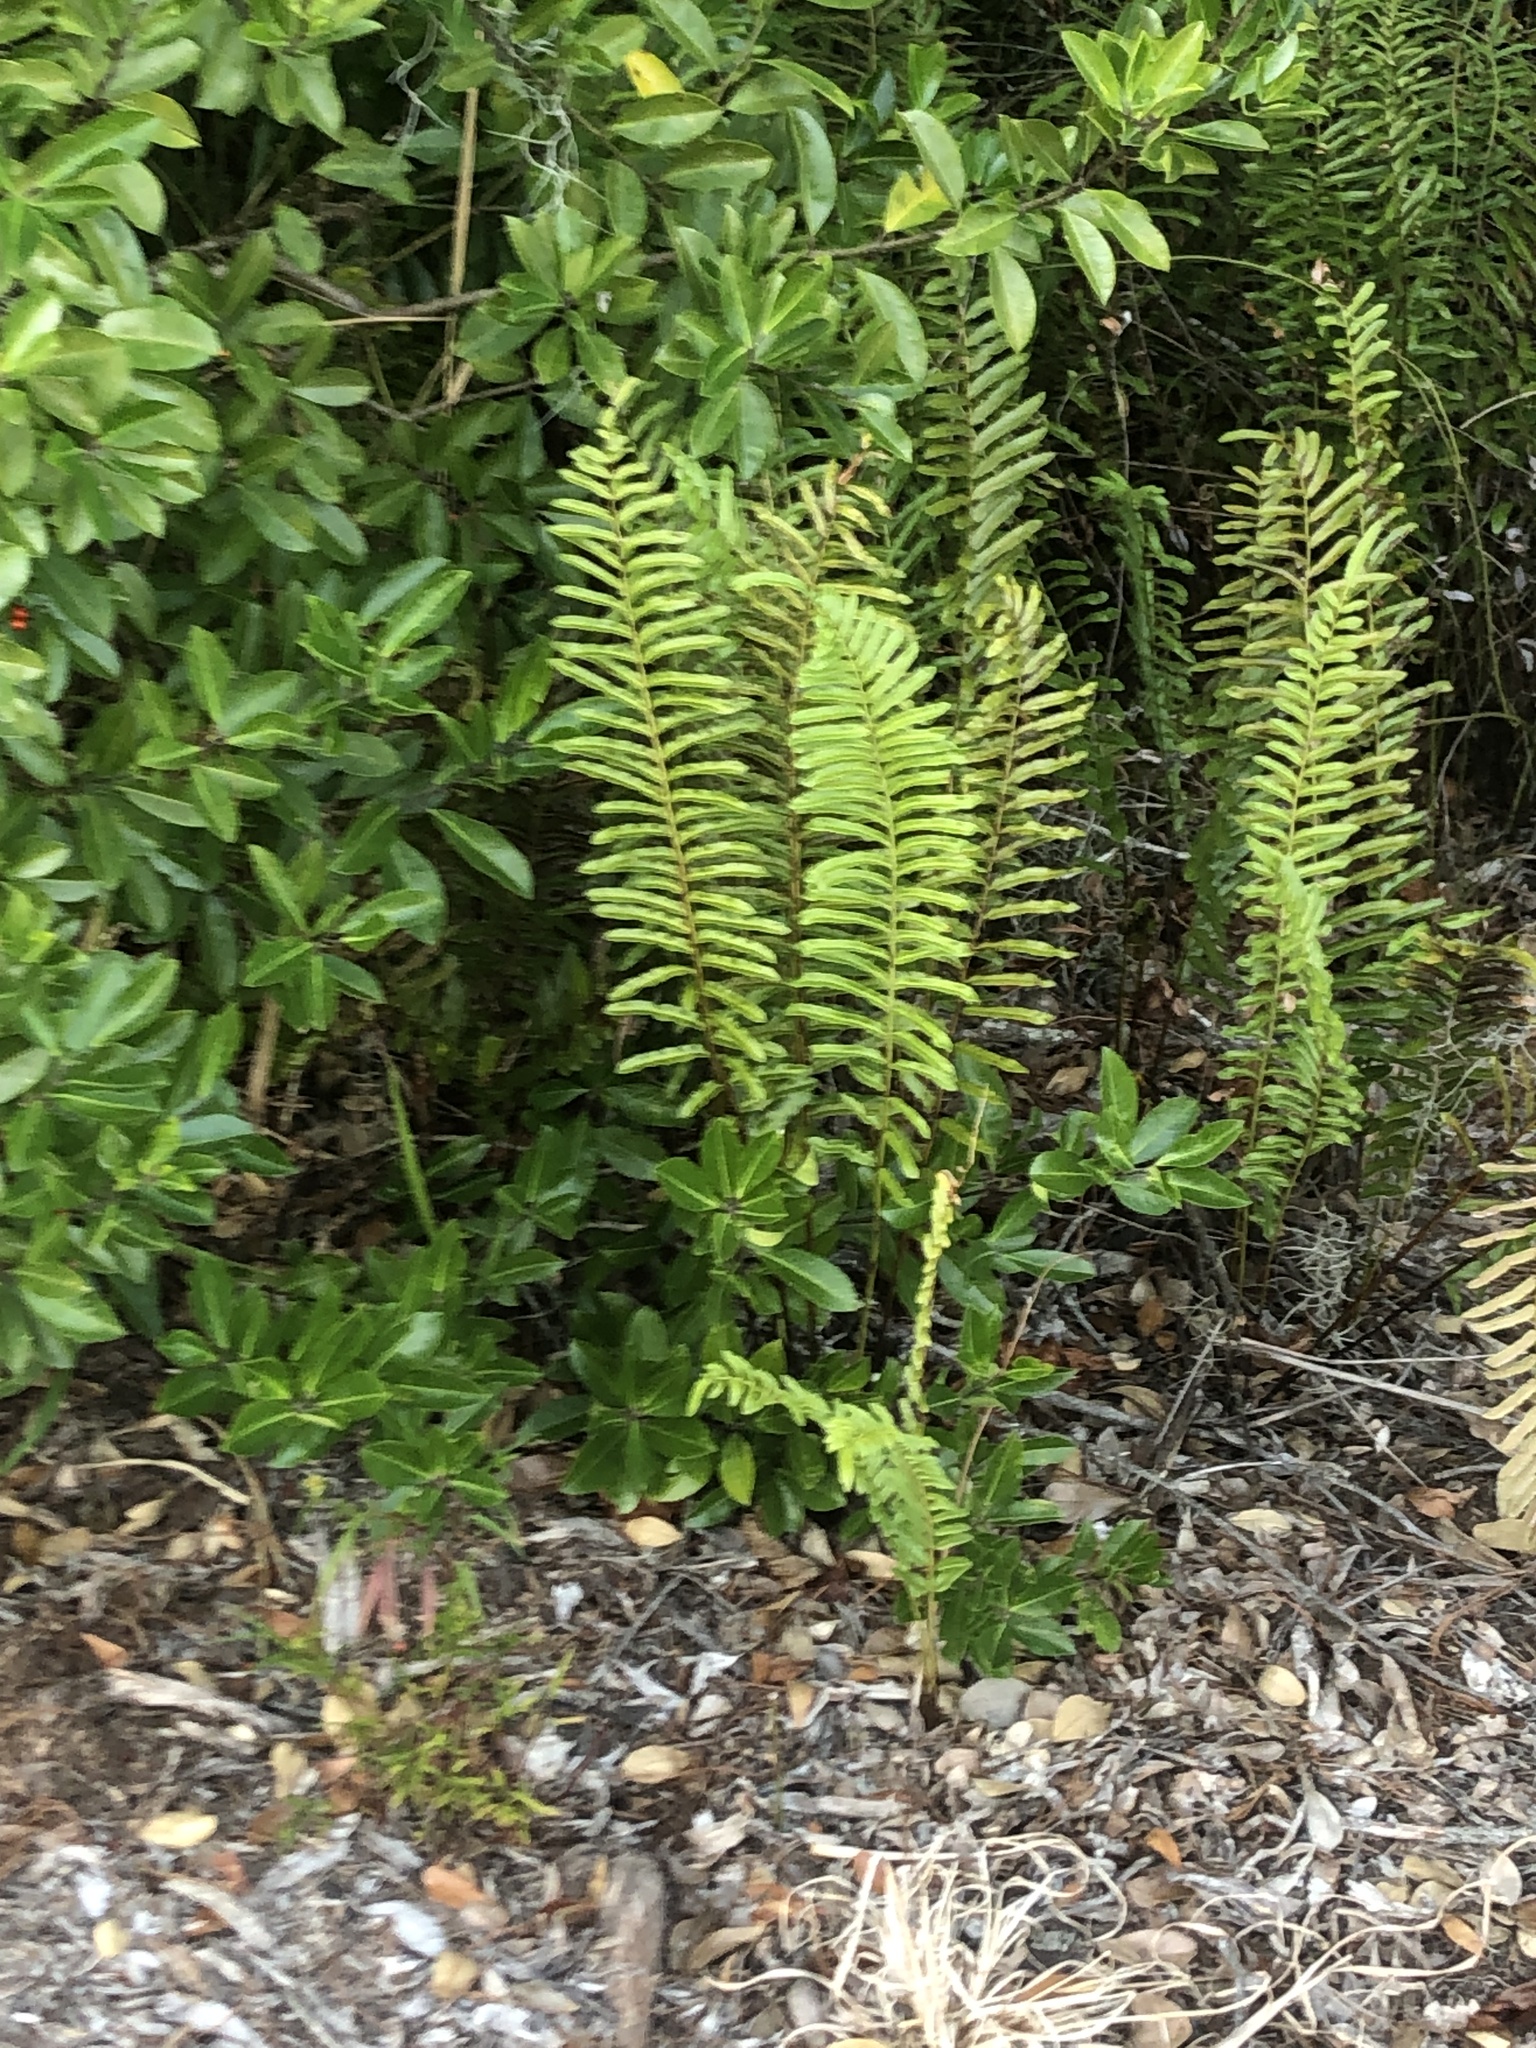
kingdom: Plantae
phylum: Tracheophyta
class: Polypodiopsida
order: Polypodiales
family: Blechnaceae
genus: Telmatoblechnum
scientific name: Telmatoblechnum serrulatum
